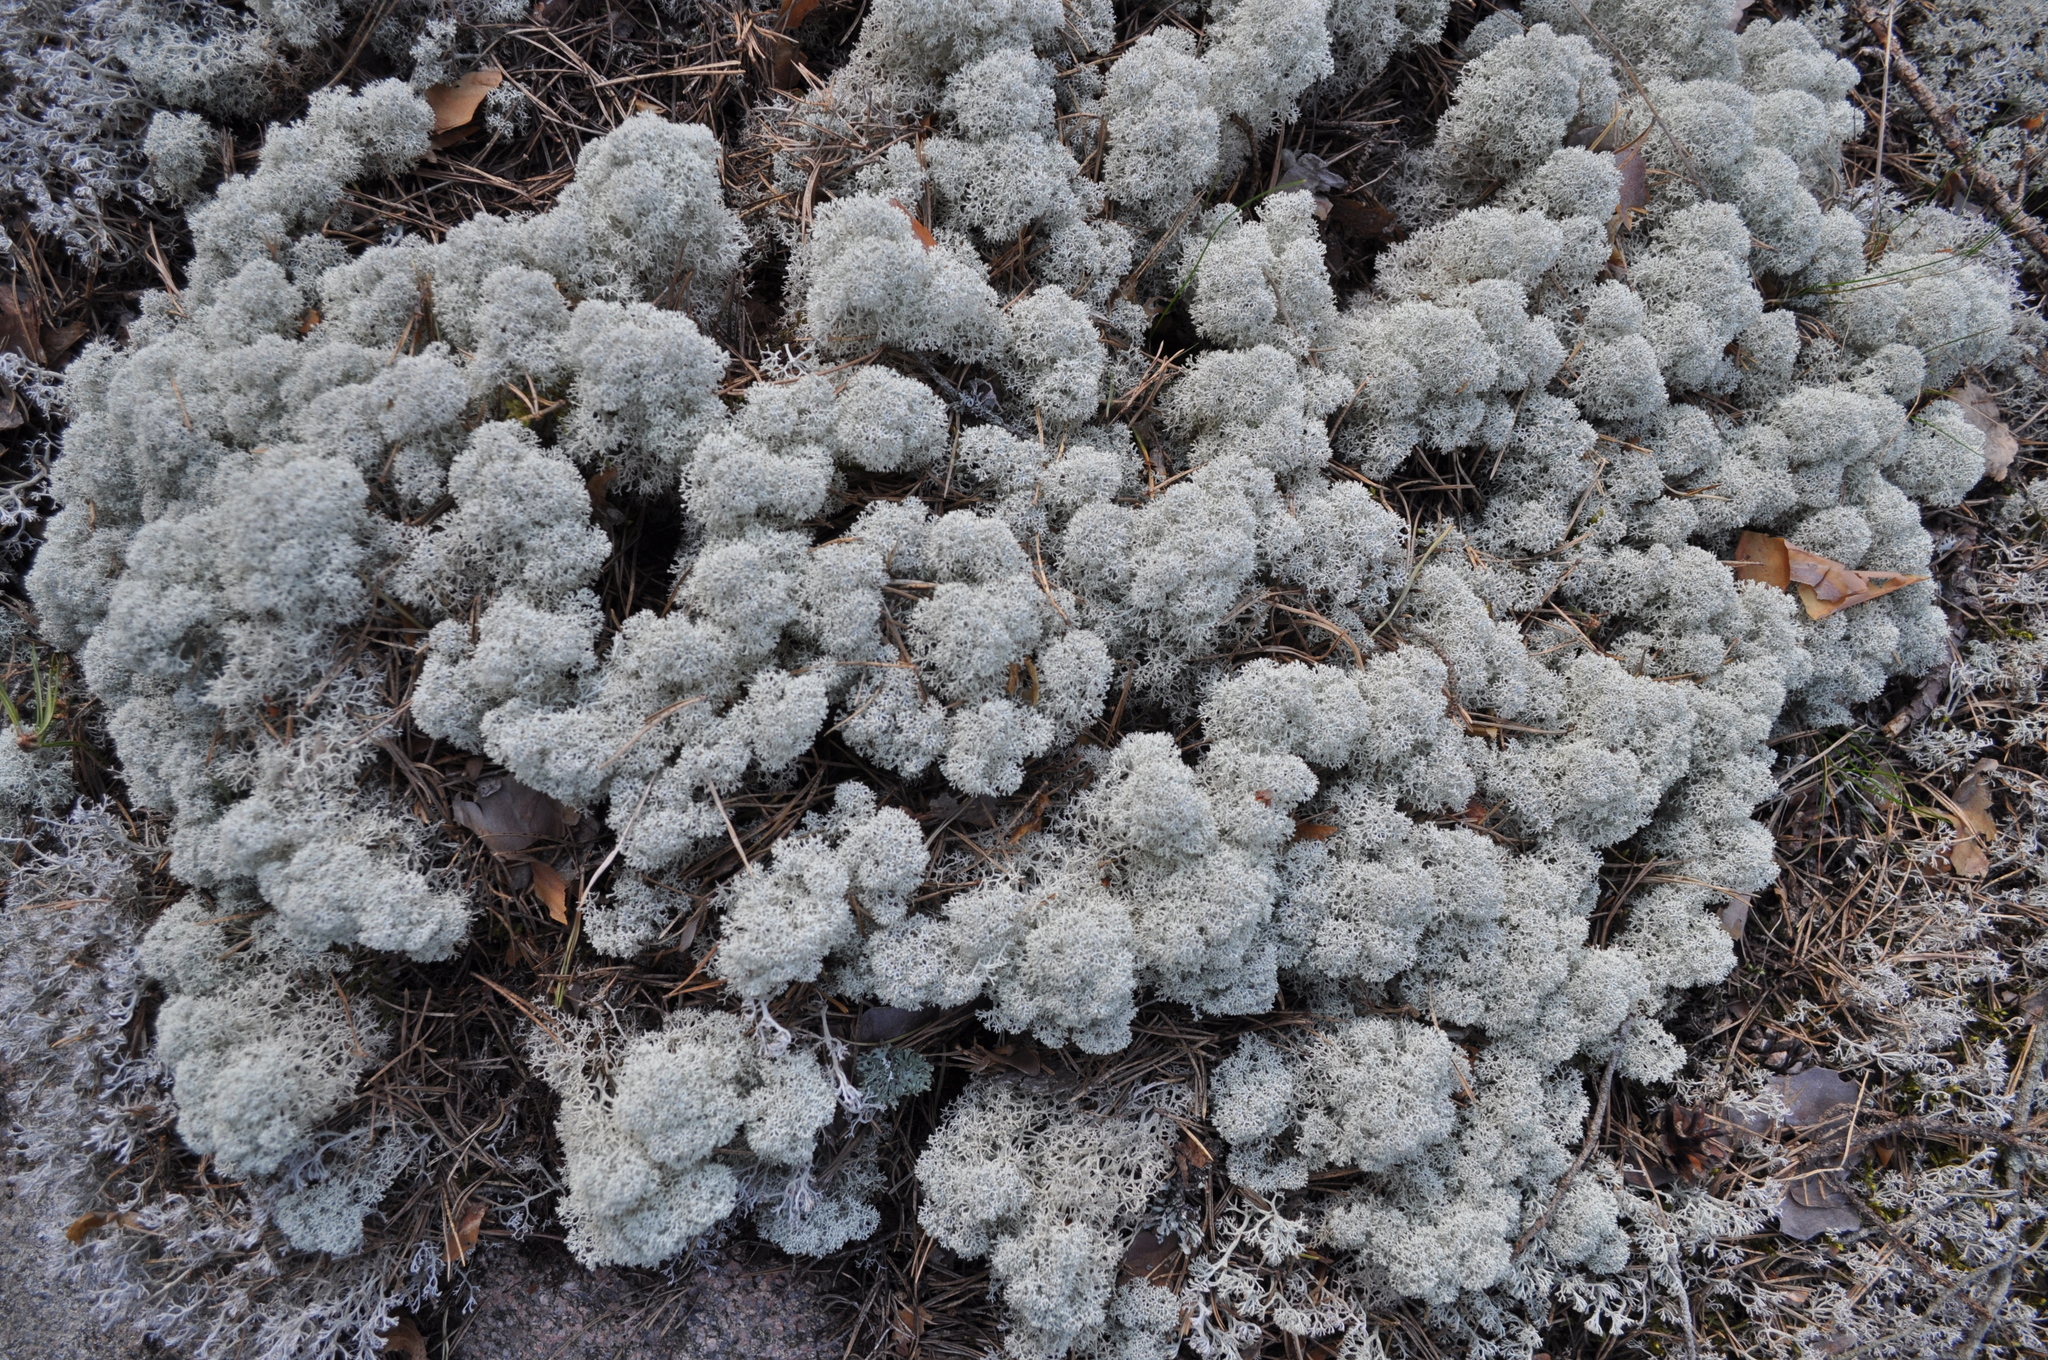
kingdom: Fungi
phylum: Ascomycota
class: Lecanoromycetes
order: Lecanorales
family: Cladoniaceae
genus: Cladonia
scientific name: Cladonia stellaris
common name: Star-tipped reindeer lichen
